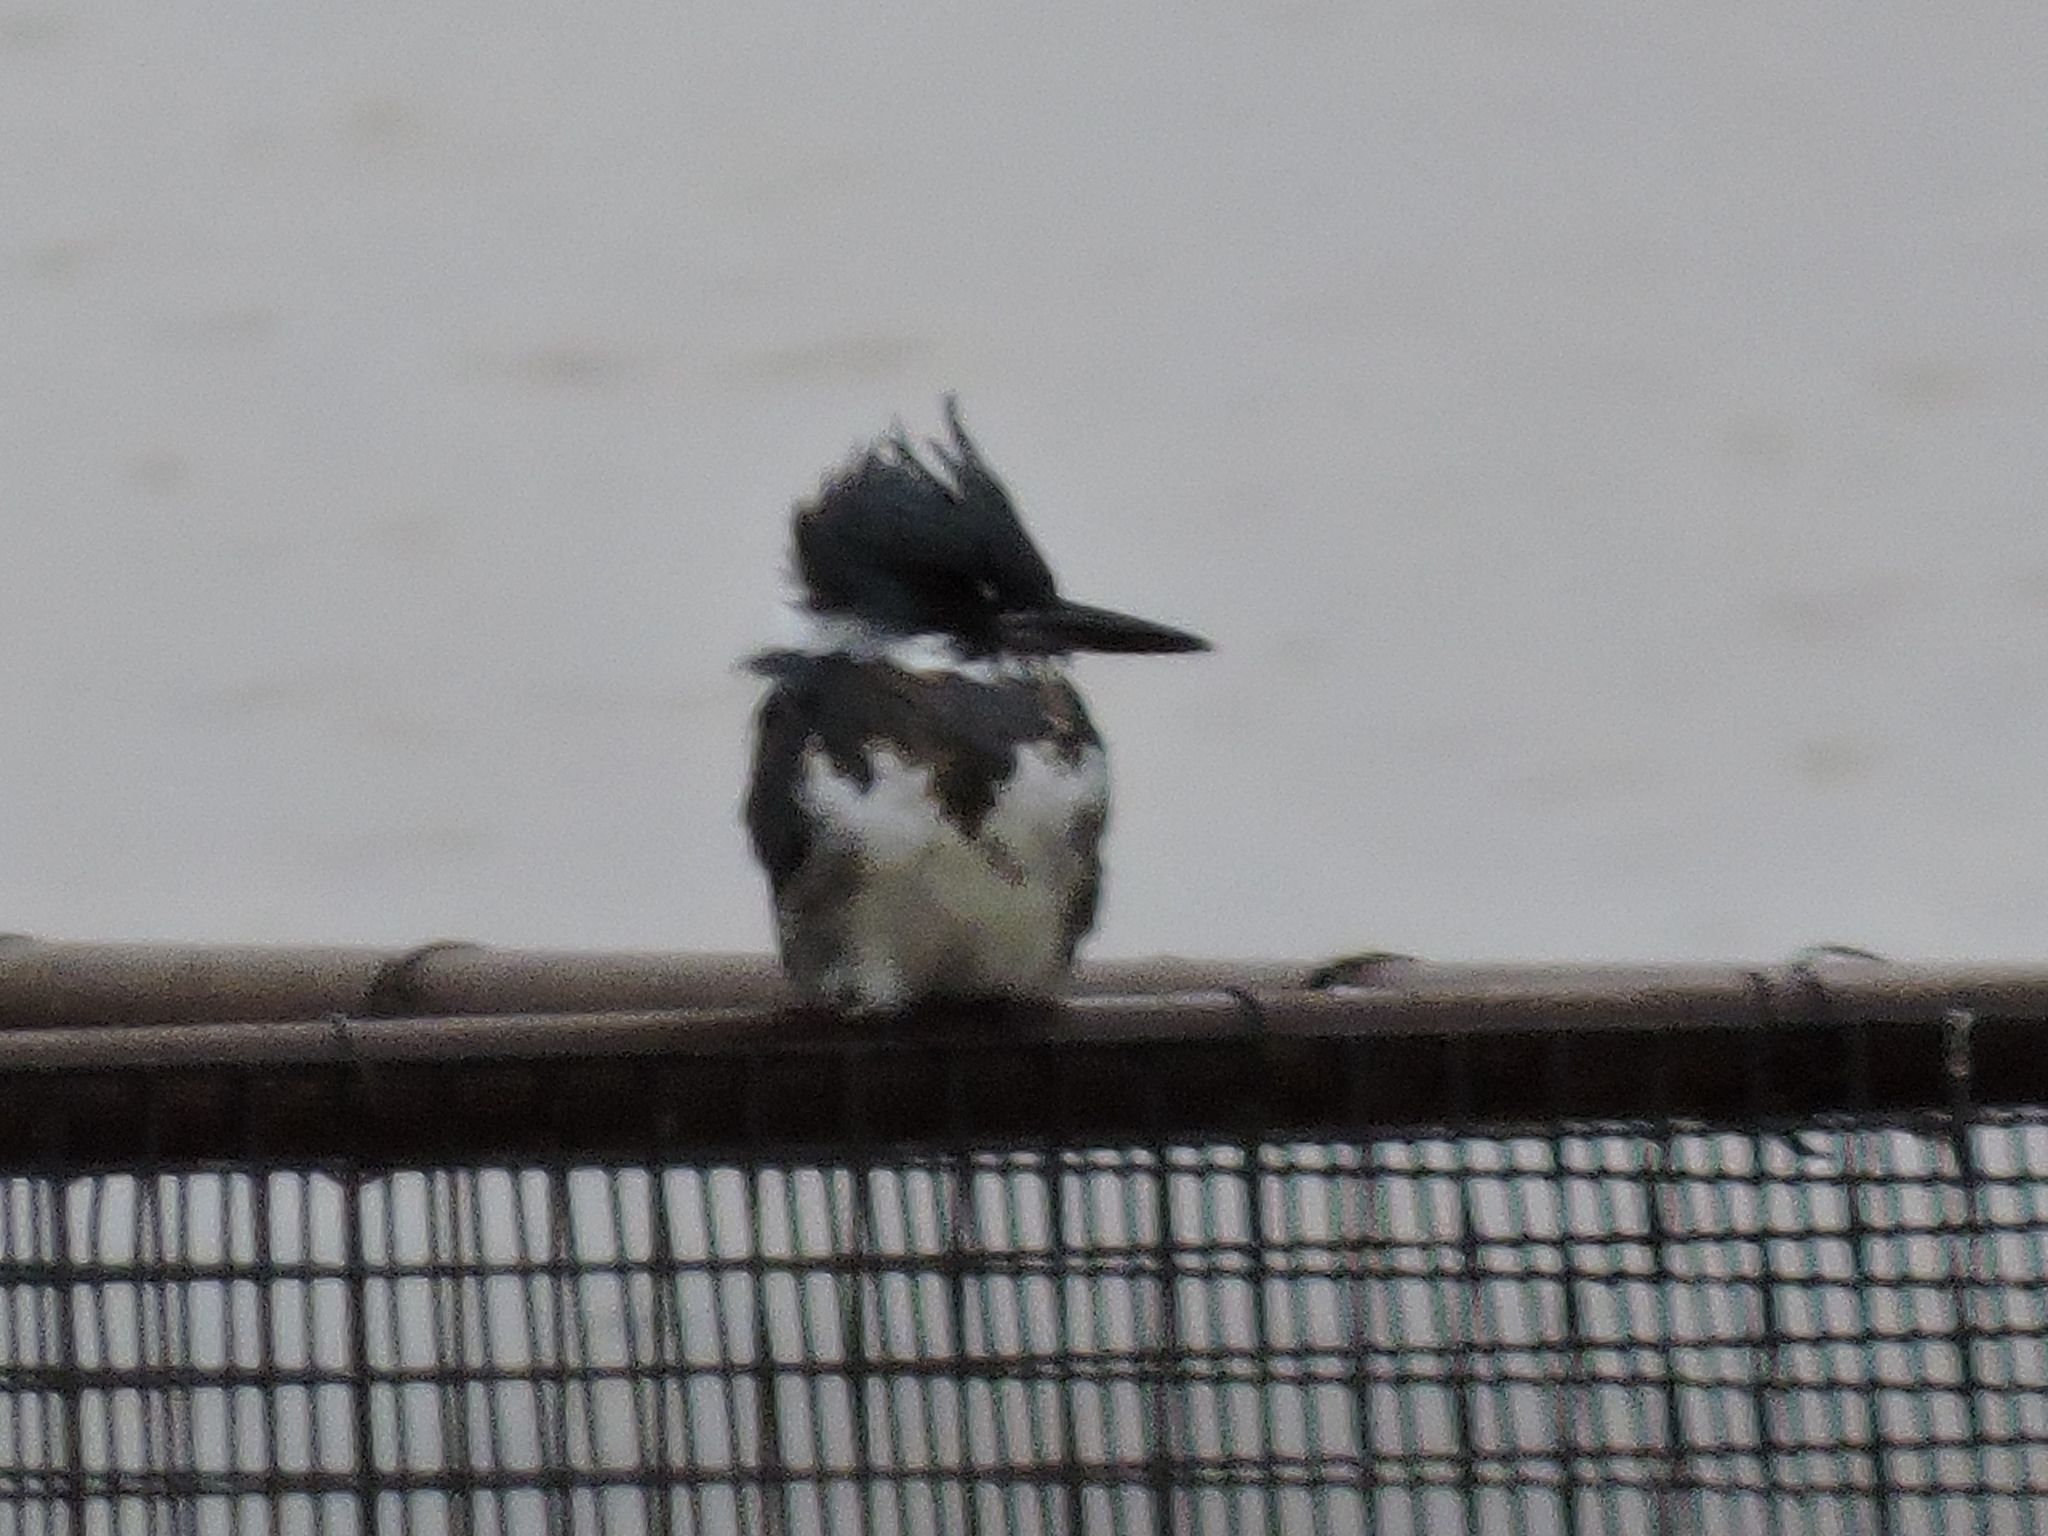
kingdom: Animalia
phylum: Chordata
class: Aves
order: Coraciiformes
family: Alcedinidae
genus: Megaceryle
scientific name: Megaceryle alcyon
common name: Belted kingfisher
